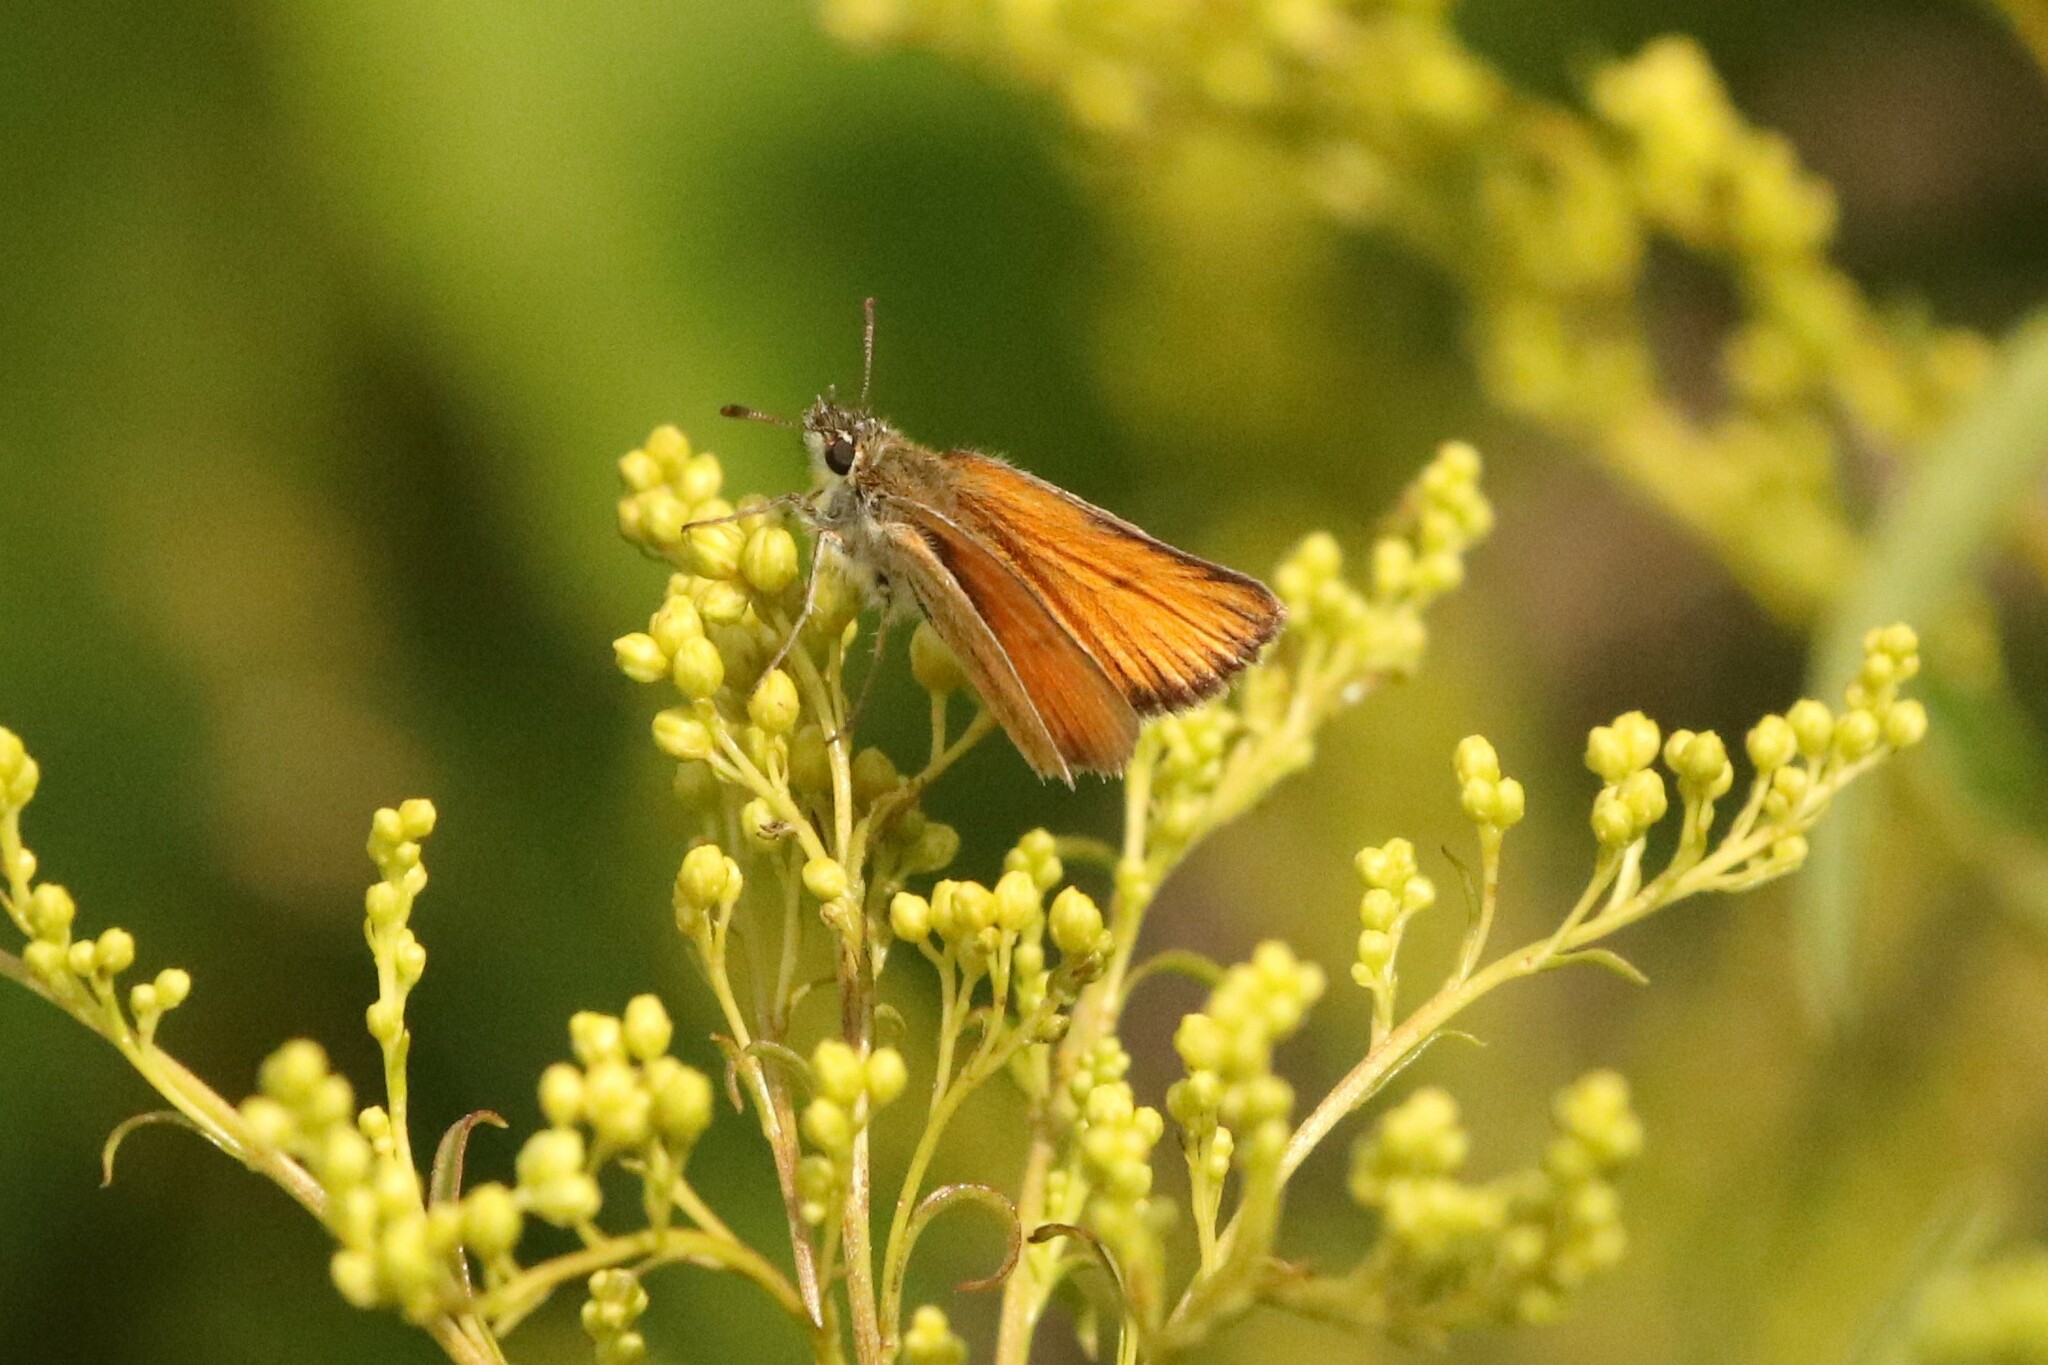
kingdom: Animalia
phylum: Arthropoda
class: Insecta
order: Lepidoptera
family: Hesperiidae
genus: Thymelicus
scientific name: Thymelicus lineola
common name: Essex skipper
